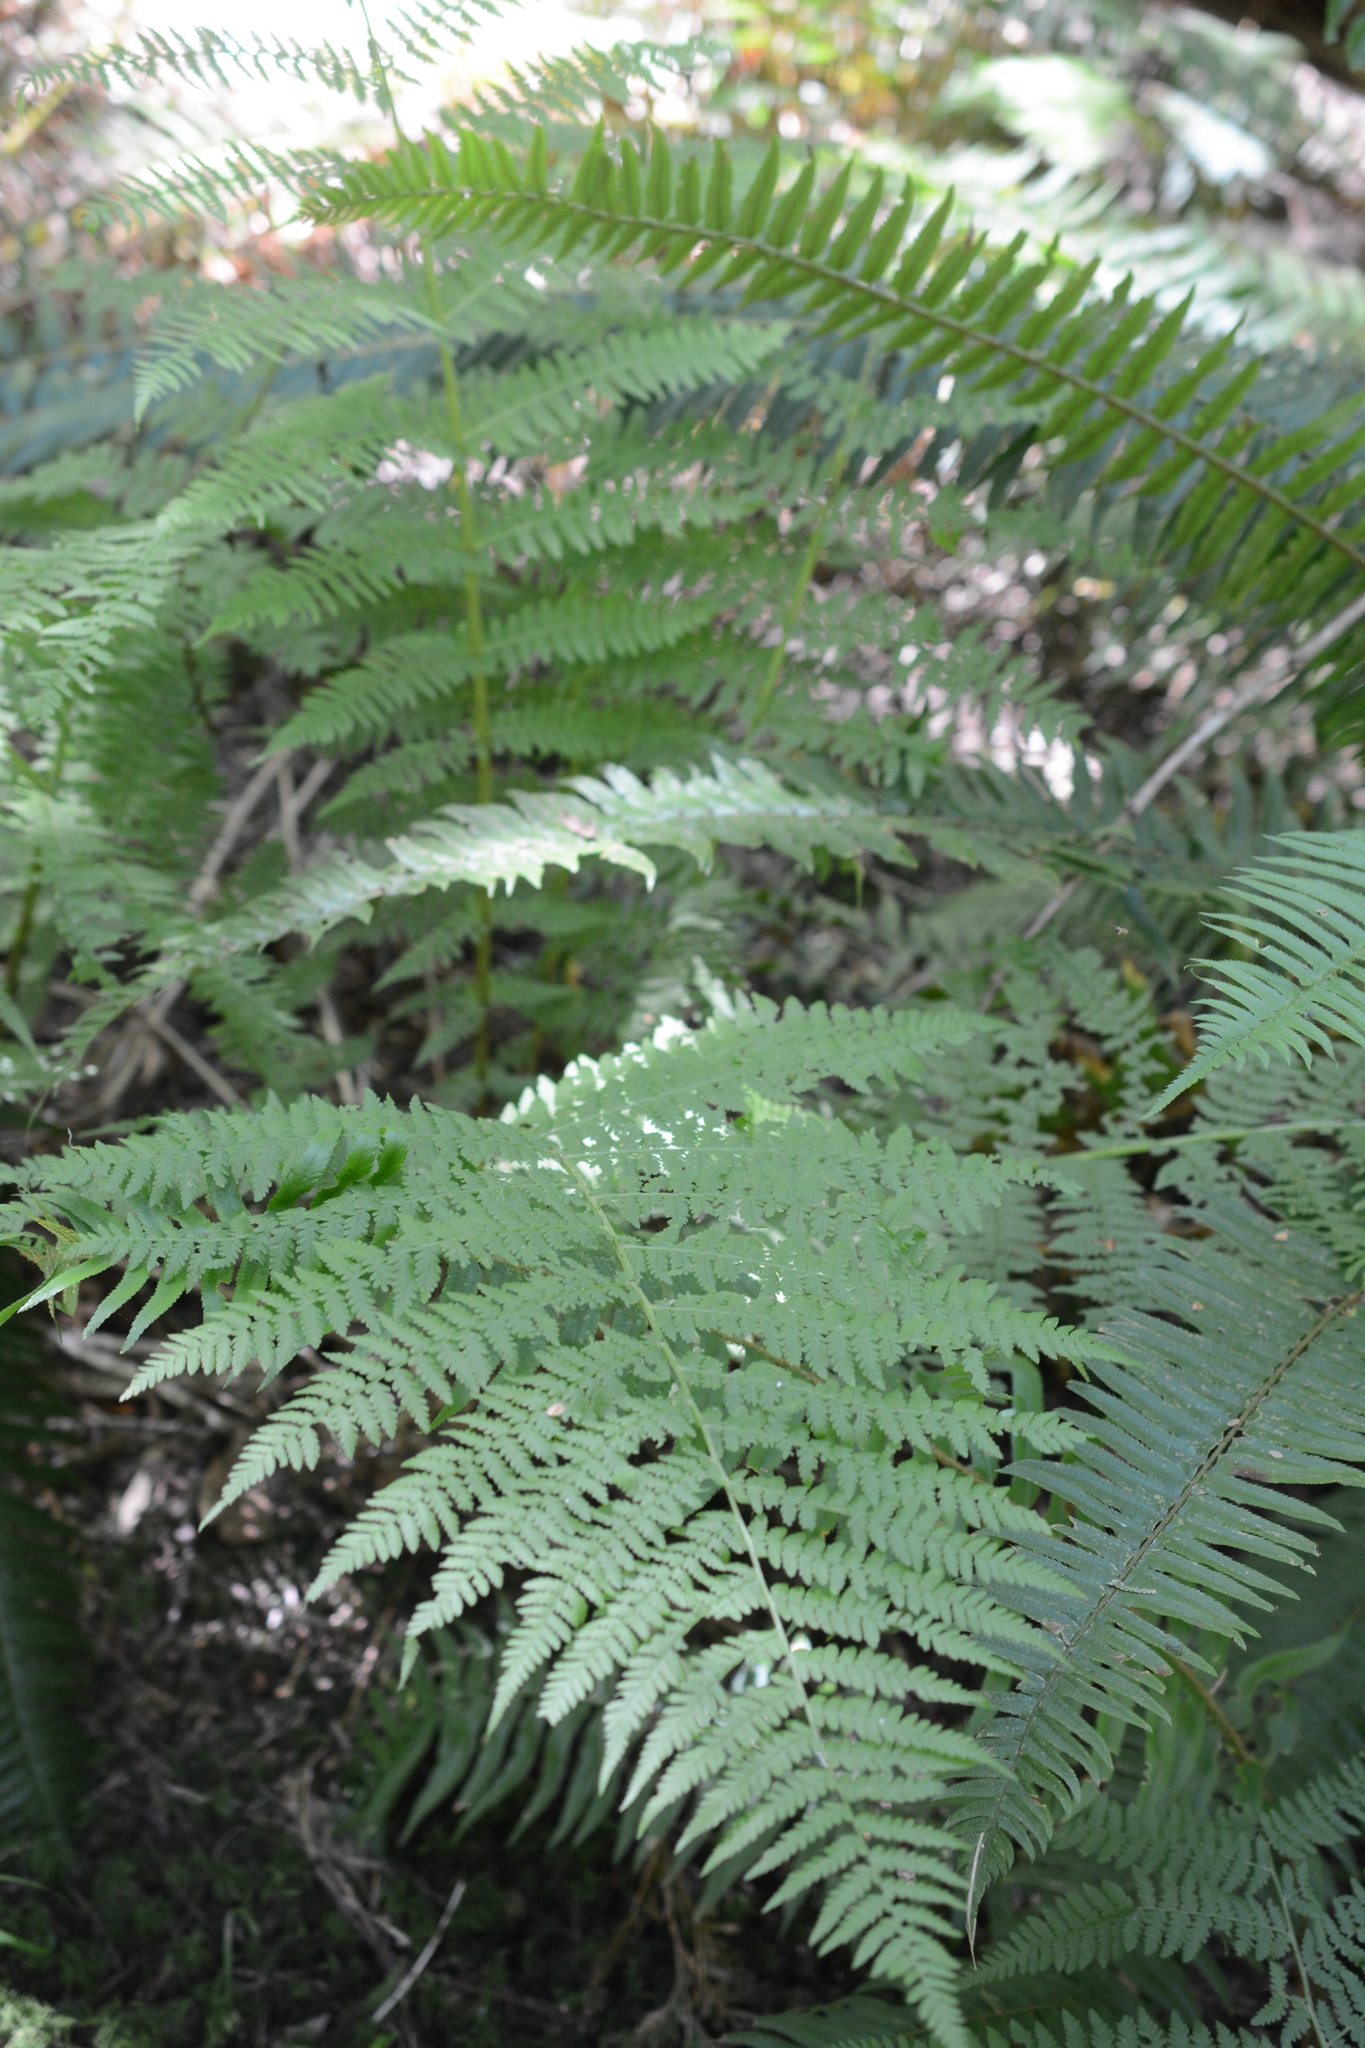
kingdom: Plantae
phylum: Tracheophyta
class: Polypodiopsida
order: Polypodiales
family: Athyriaceae
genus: Athyrium
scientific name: Athyrium filix-femina
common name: Lady fern
